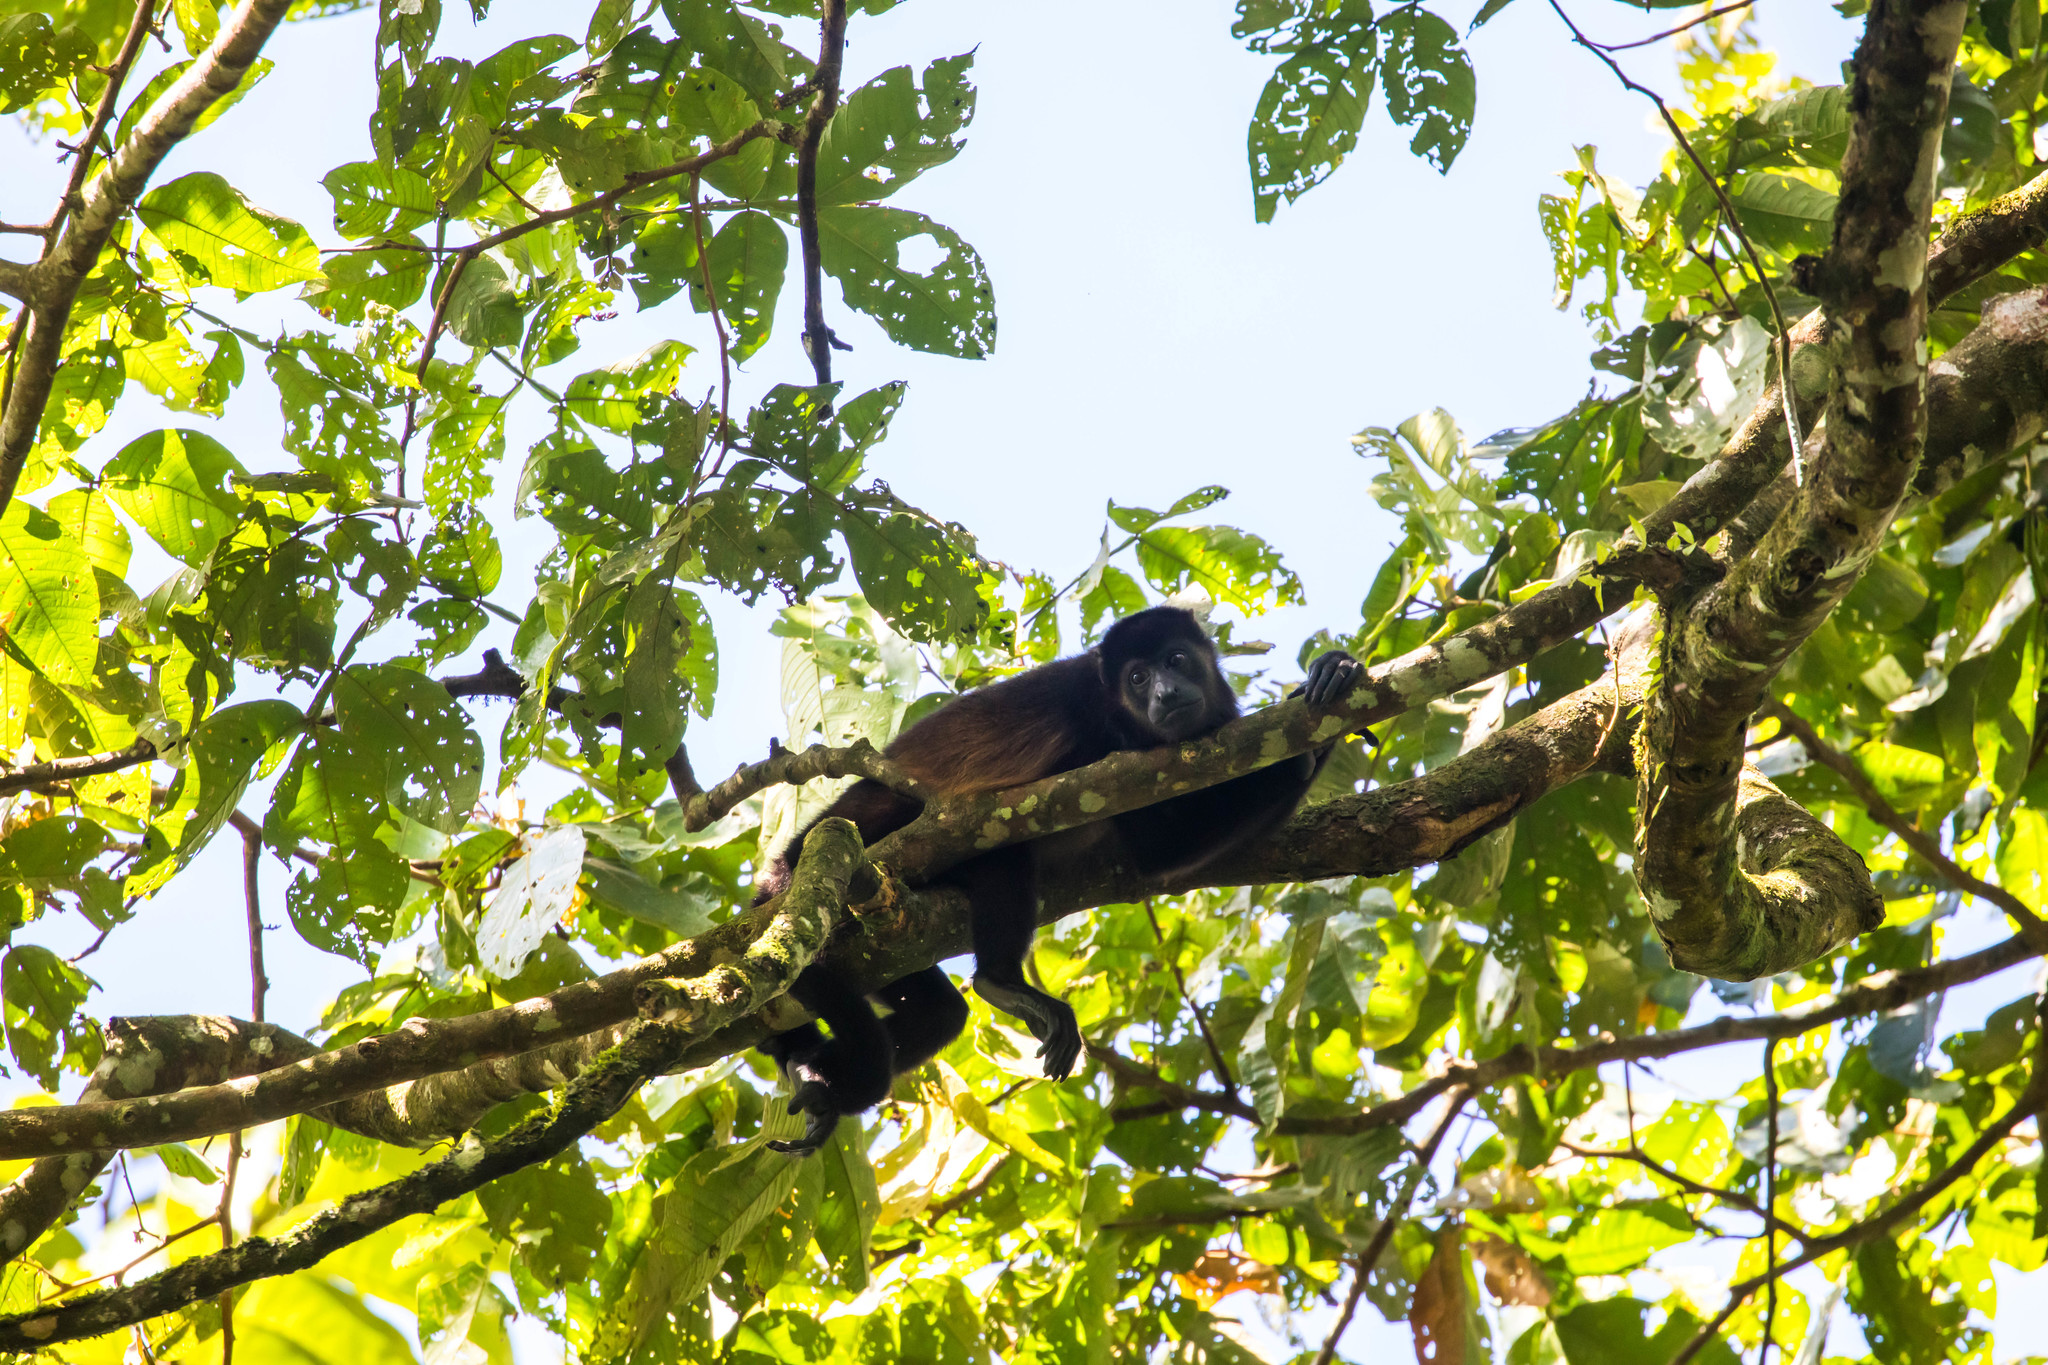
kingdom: Animalia
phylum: Chordata
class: Mammalia
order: Primates
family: Atelidae
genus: Alouatta
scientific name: Alouatta palliata
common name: Mantled howler
